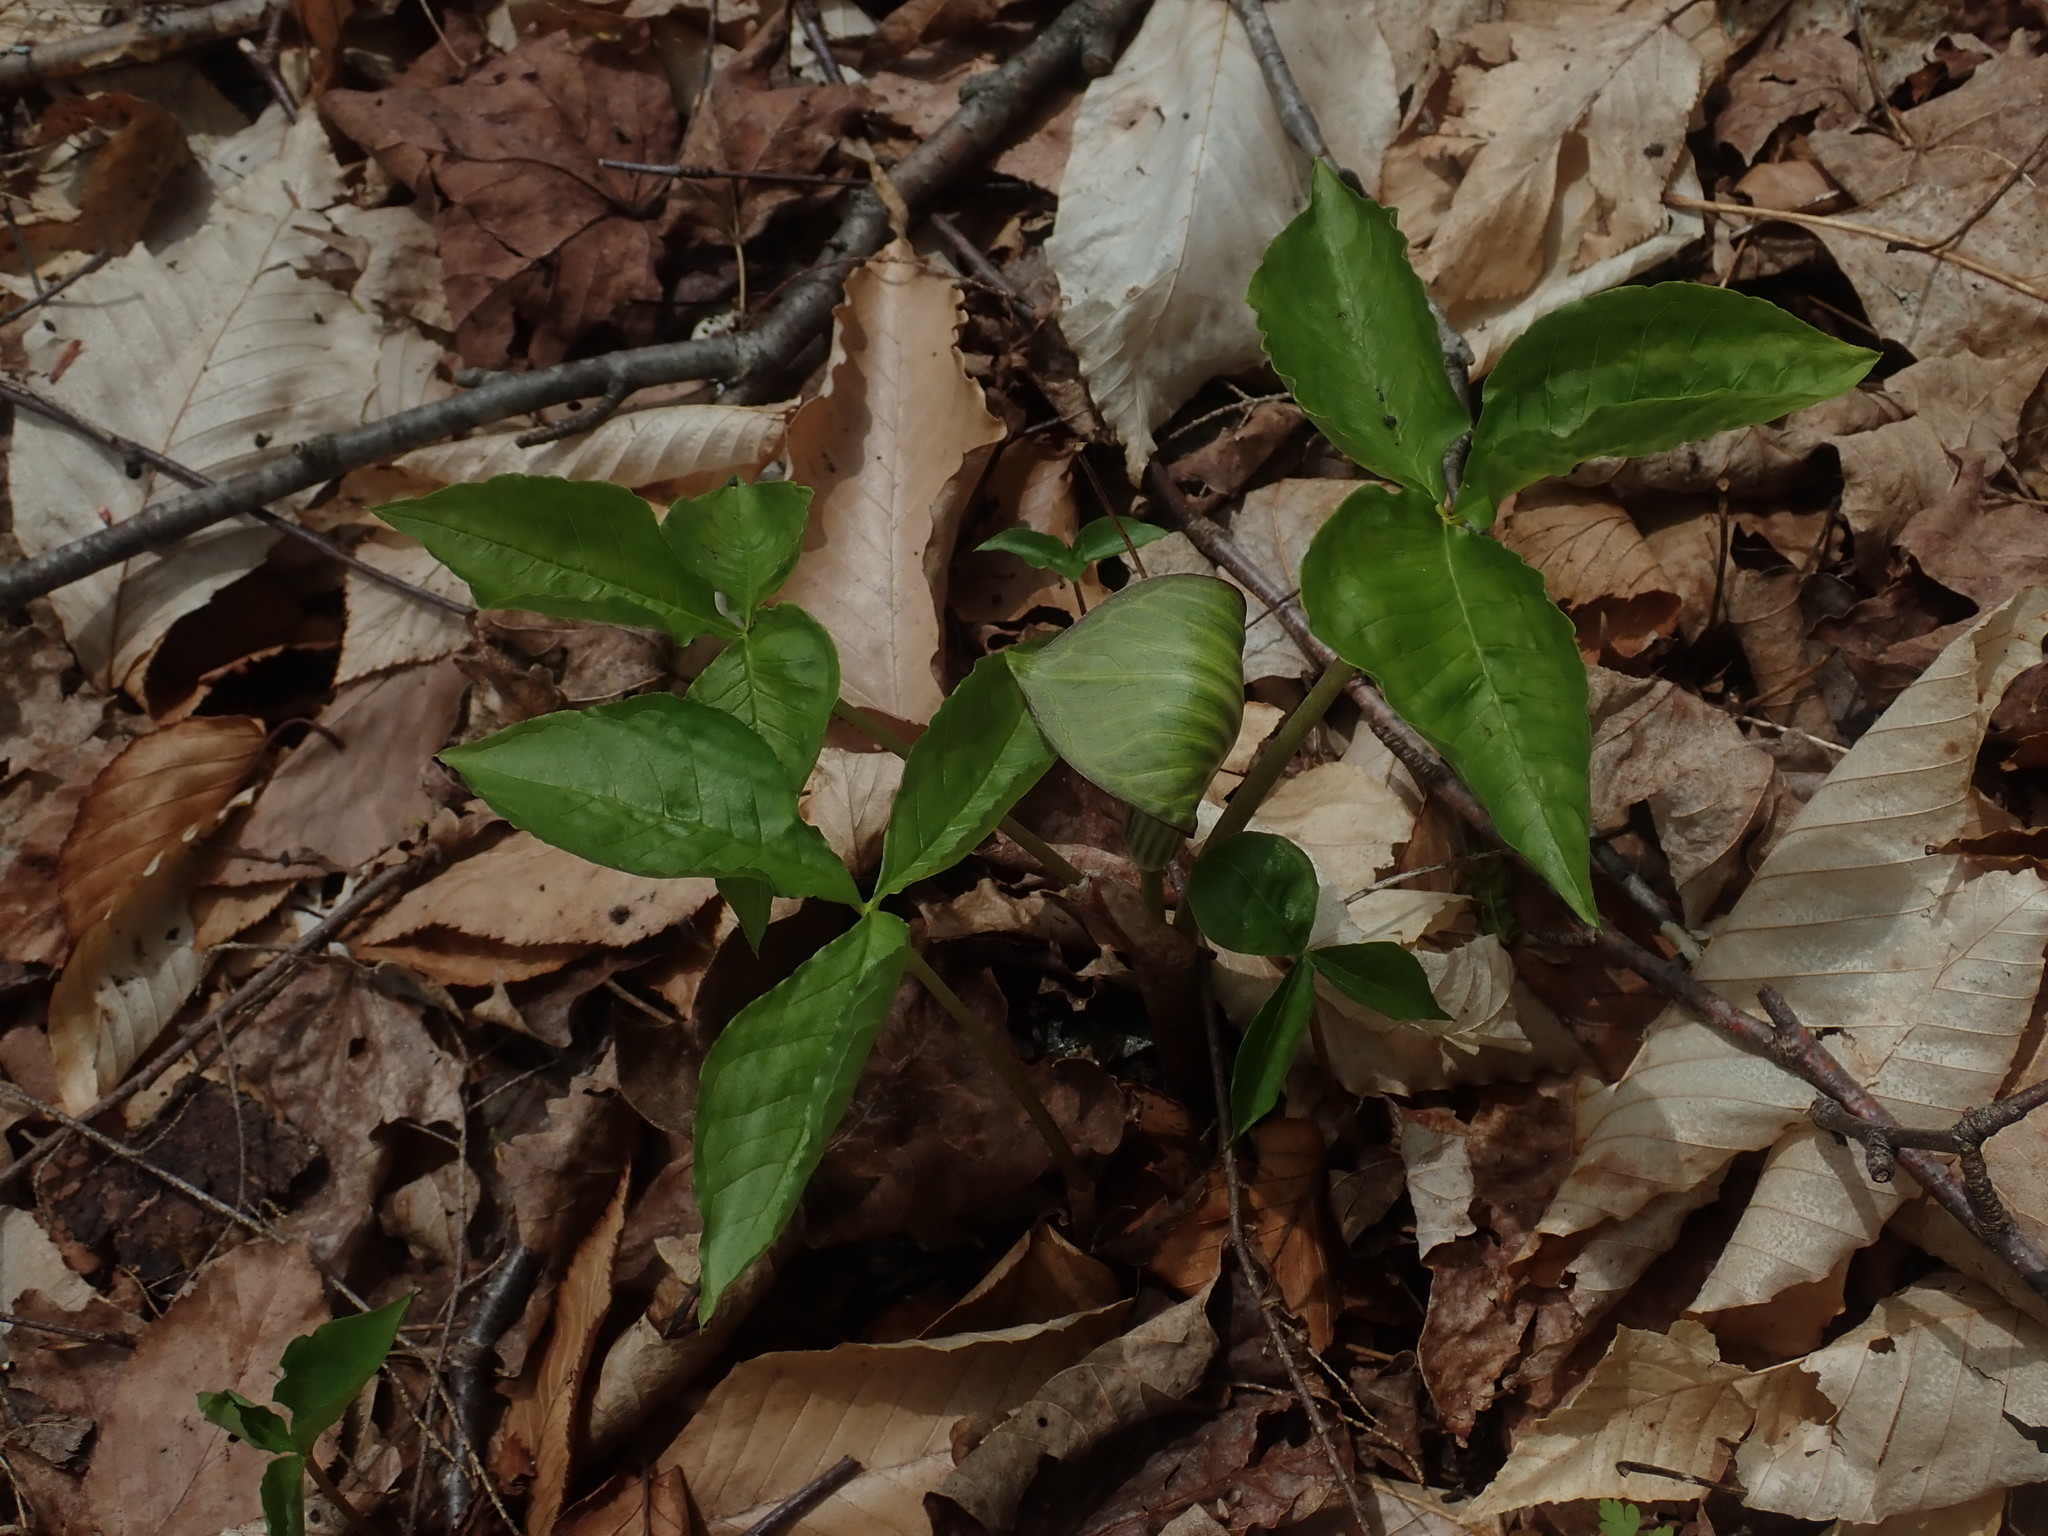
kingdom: Plantae
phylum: Tracheophyta
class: Liliopsida
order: Alismatales
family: Araceae
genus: Arisaema
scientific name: Arisaema triphyllum
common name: Jack-in-the-pulpit
